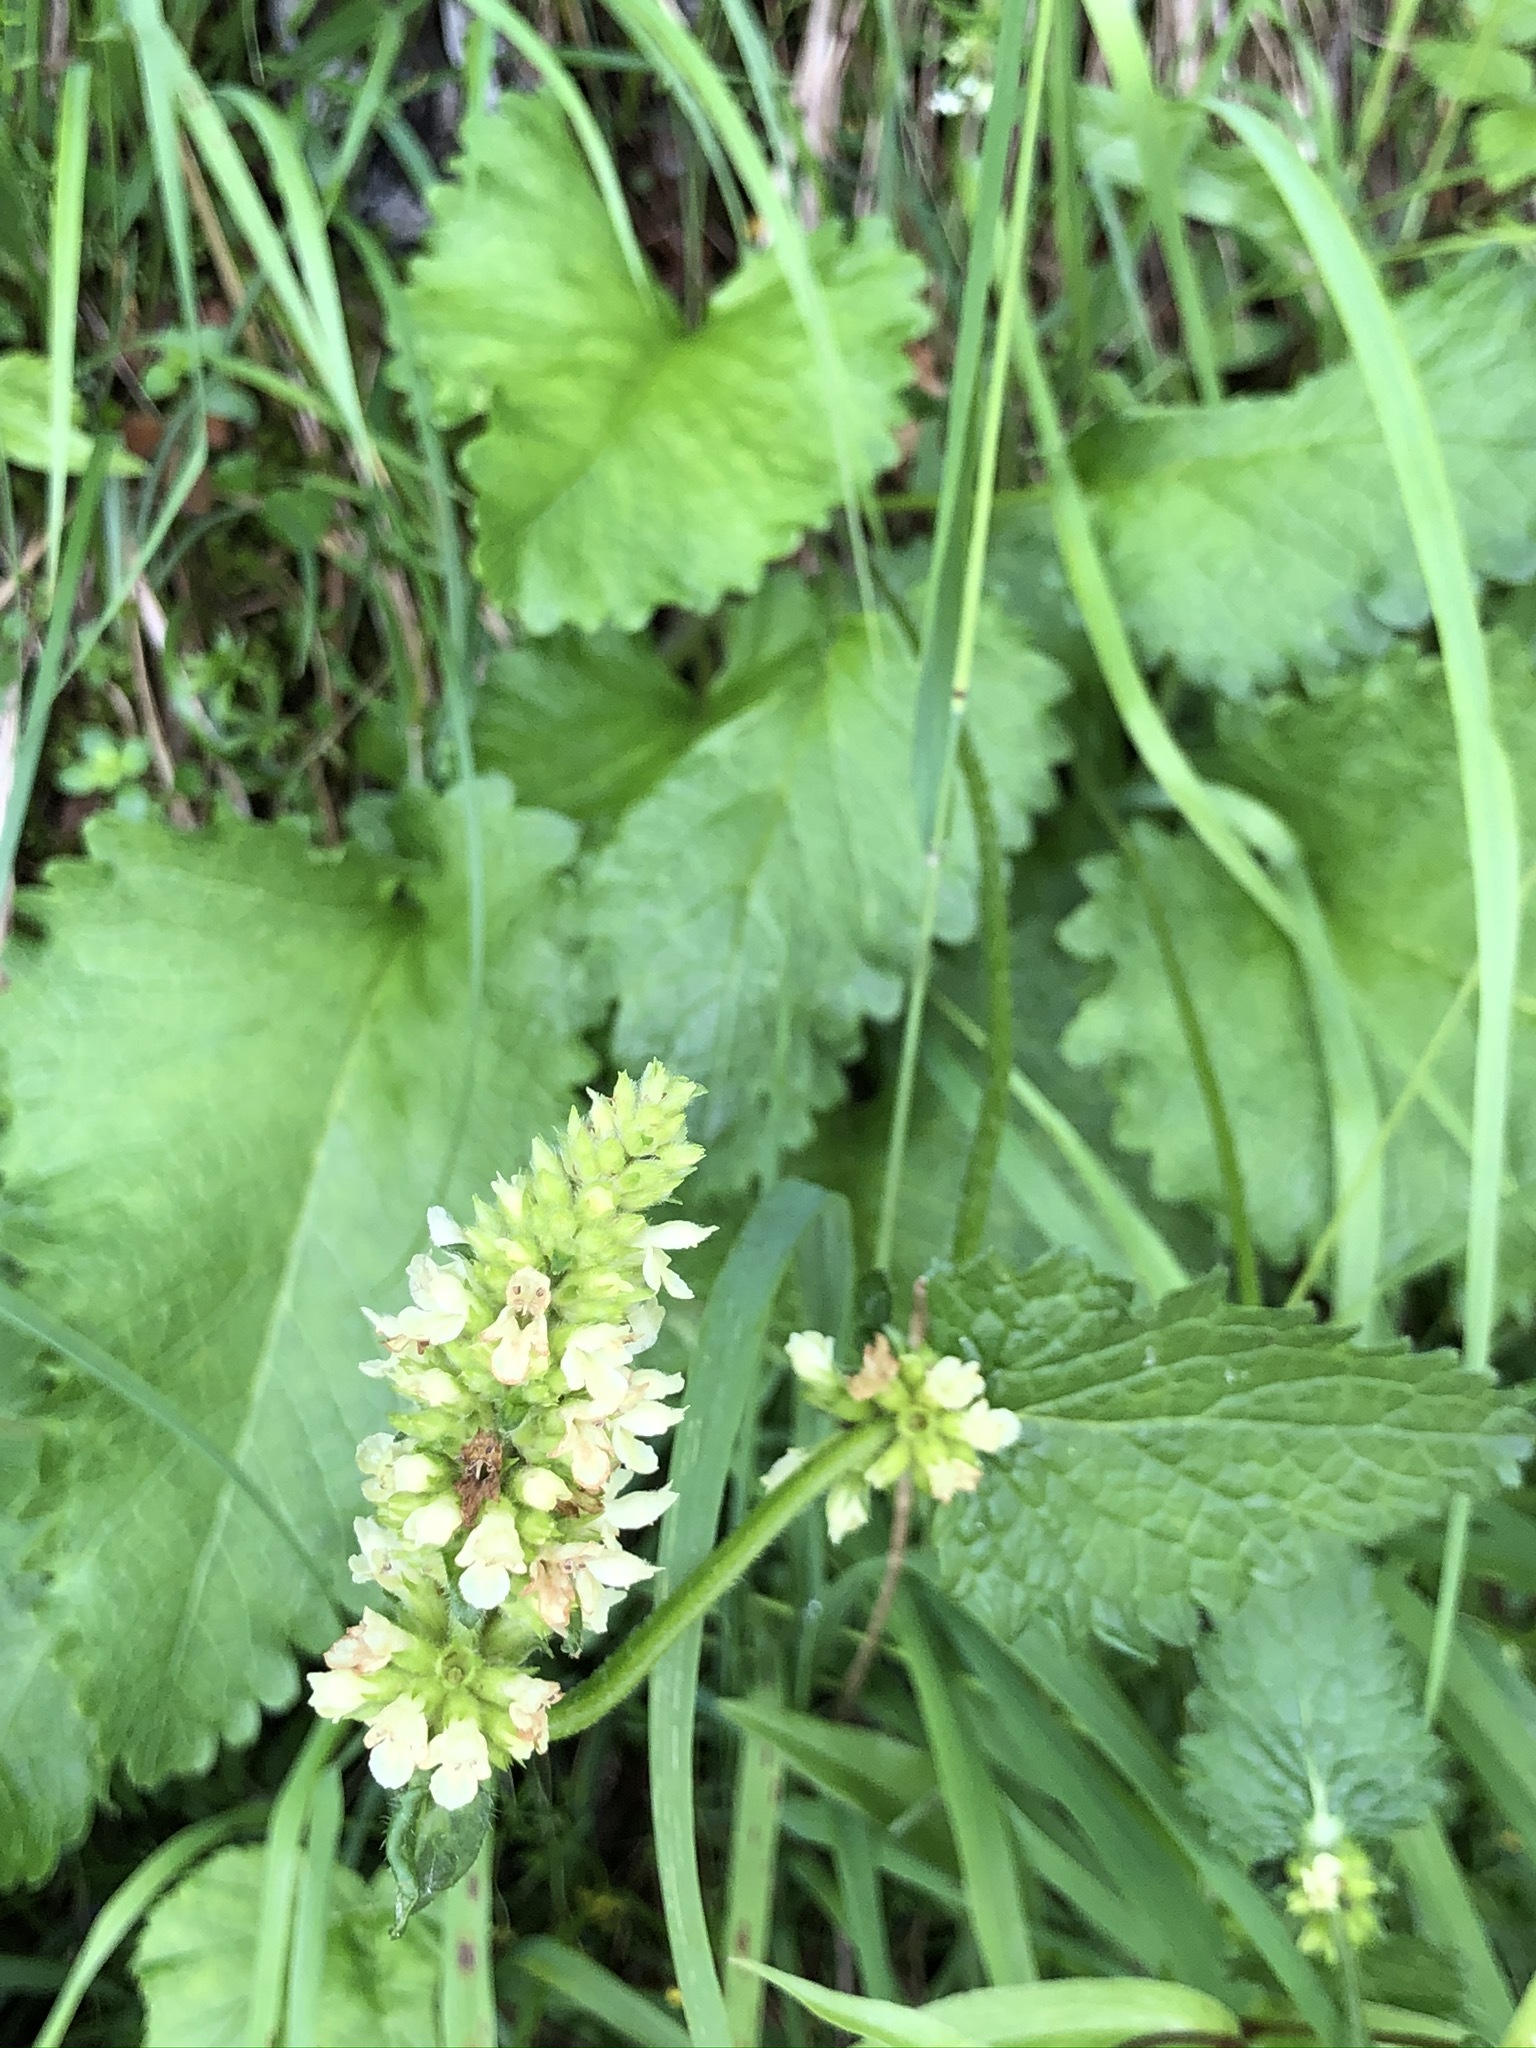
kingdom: Plantae
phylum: Tracheophyta
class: Magnoliopsida
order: Lamiales
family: Lamiaceae
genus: Betonica
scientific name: Betonica alopecuros
